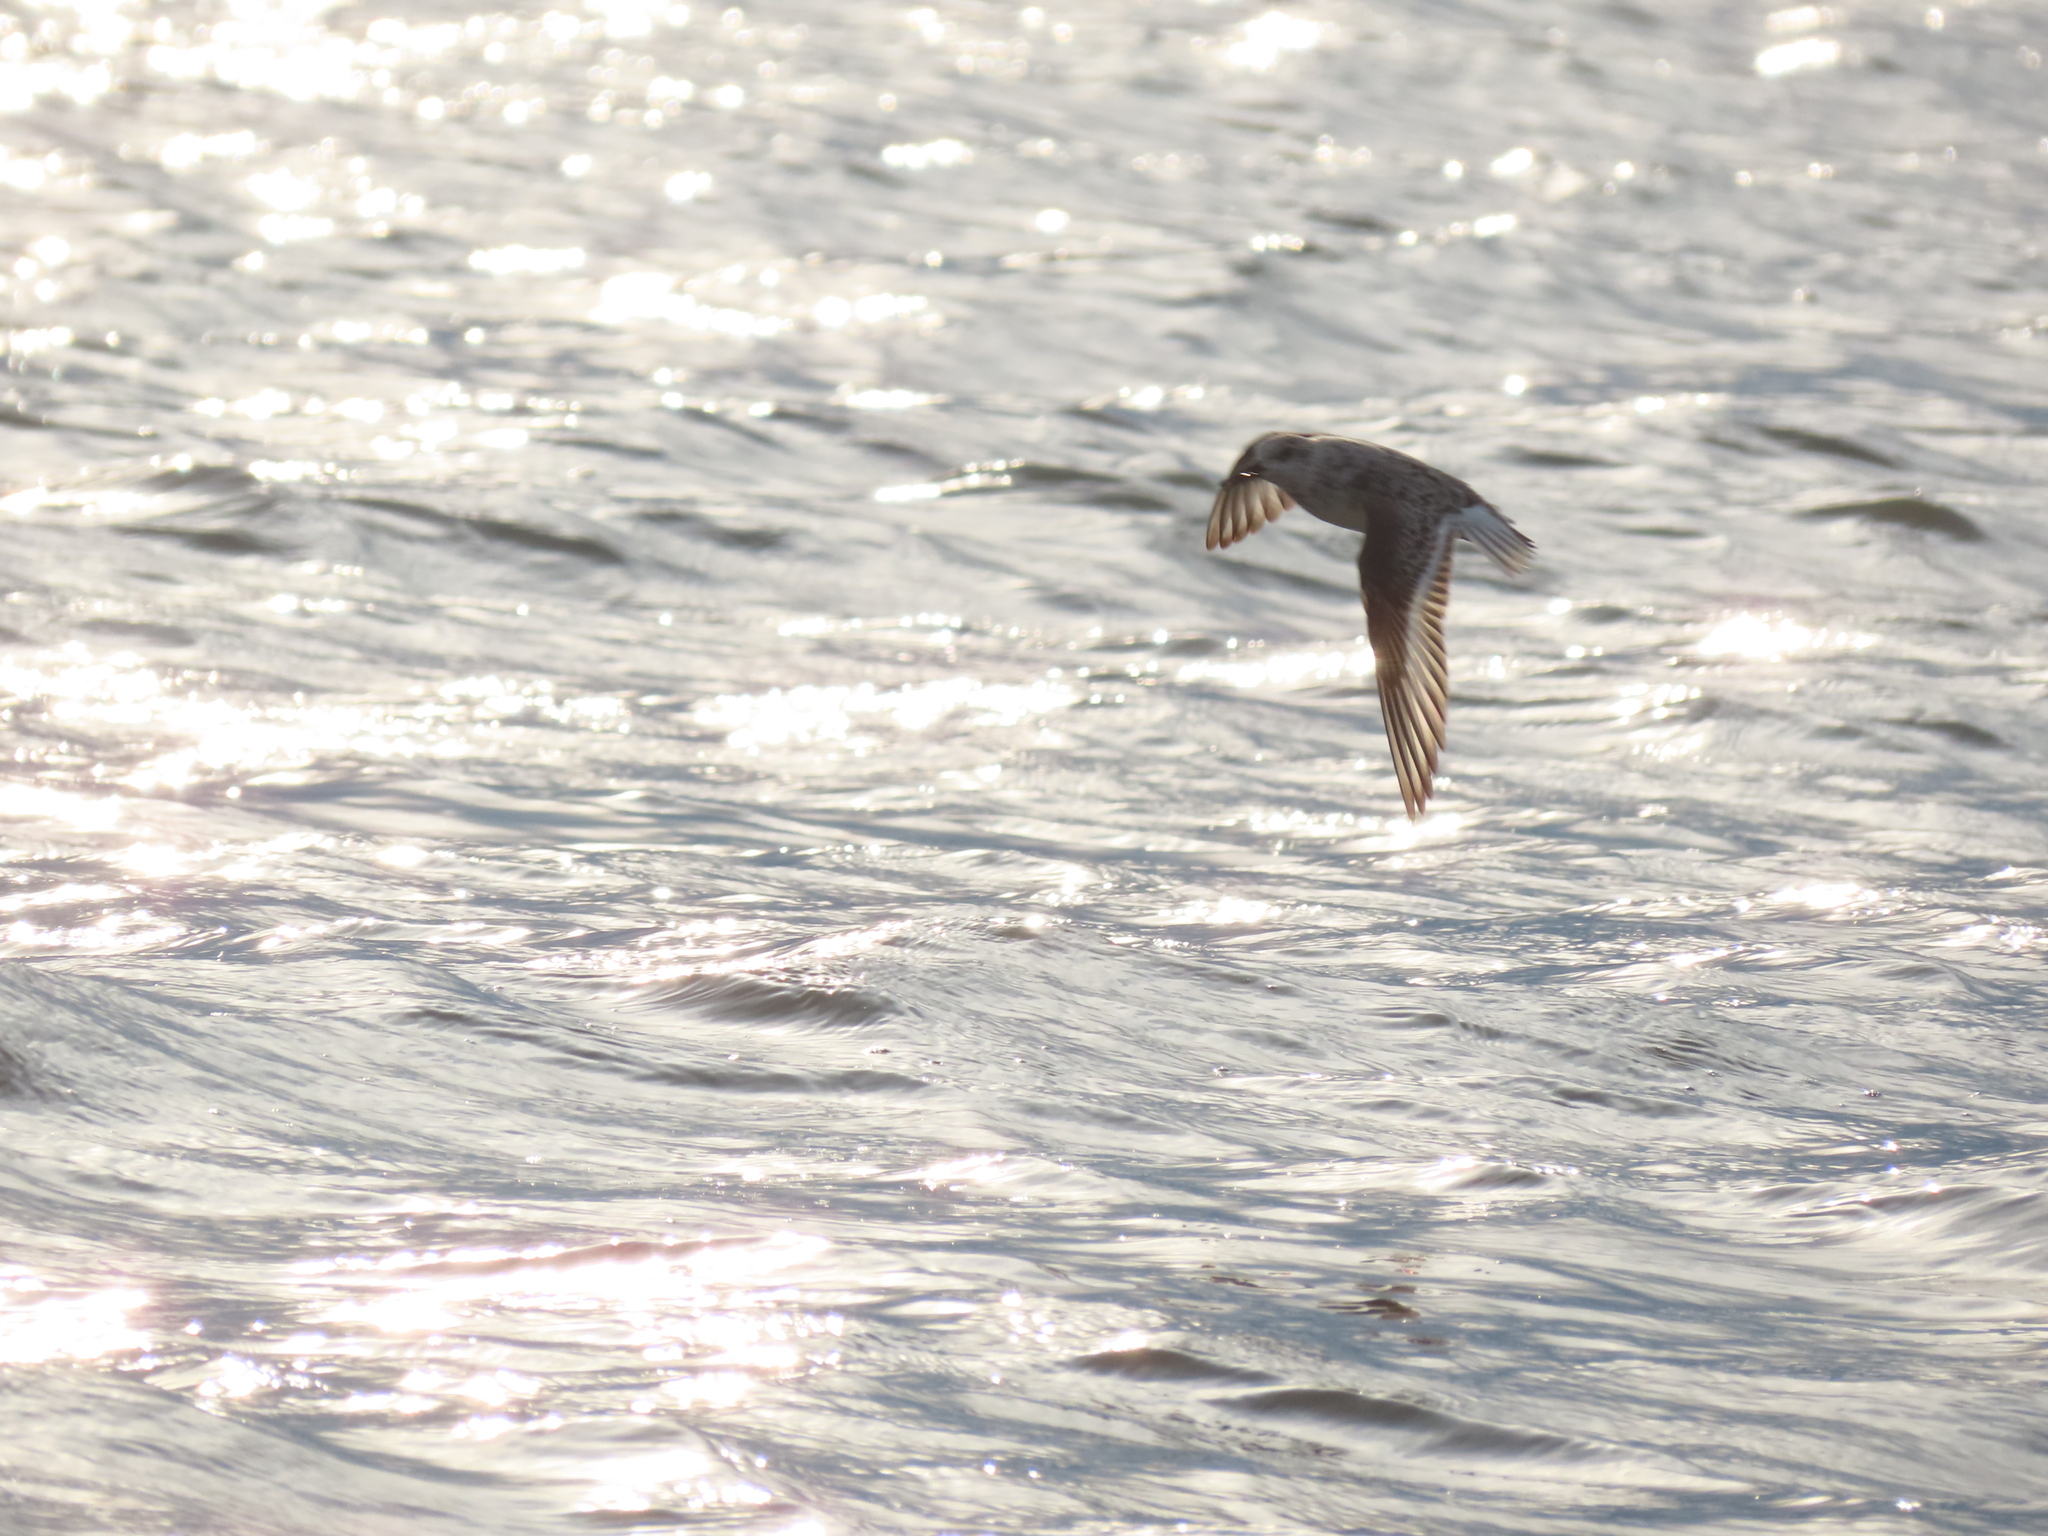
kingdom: Animalia
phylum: Chordata
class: Aves
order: Charadriiformes
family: Scolopacidae
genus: Calidris
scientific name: Calidris alba
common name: Sanderling
